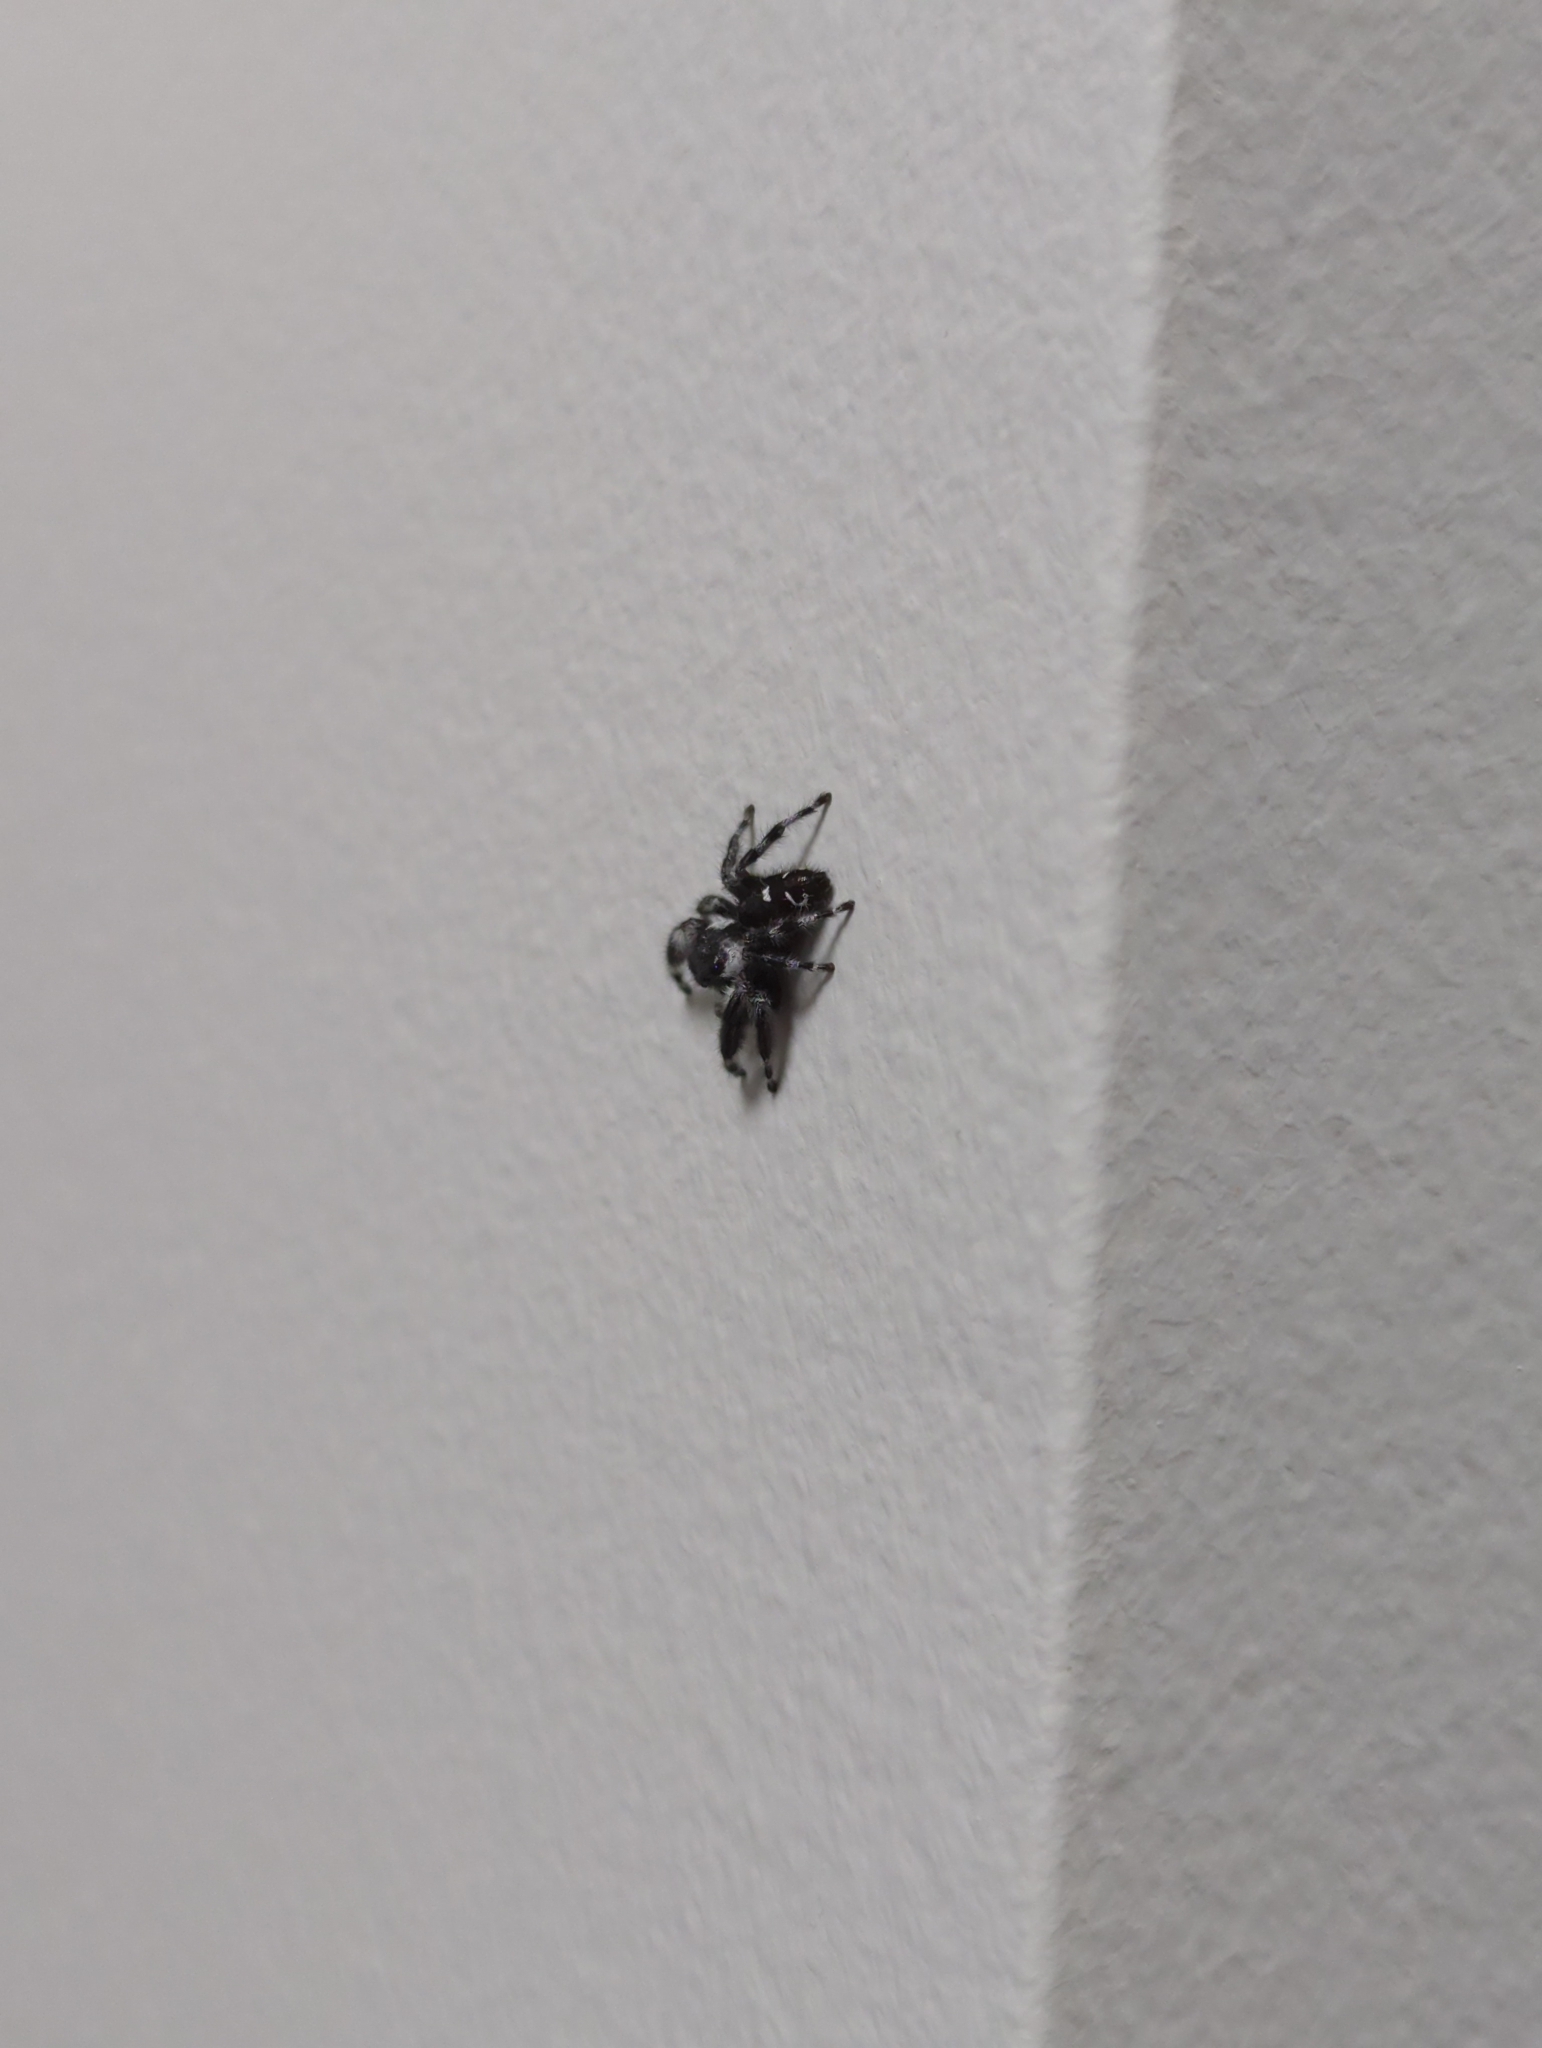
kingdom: Animalia
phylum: Arthropoda
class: Arachnida
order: Araneae
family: Salticidae
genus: Phidippus
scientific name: Phidippus audax
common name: Bold jumper
